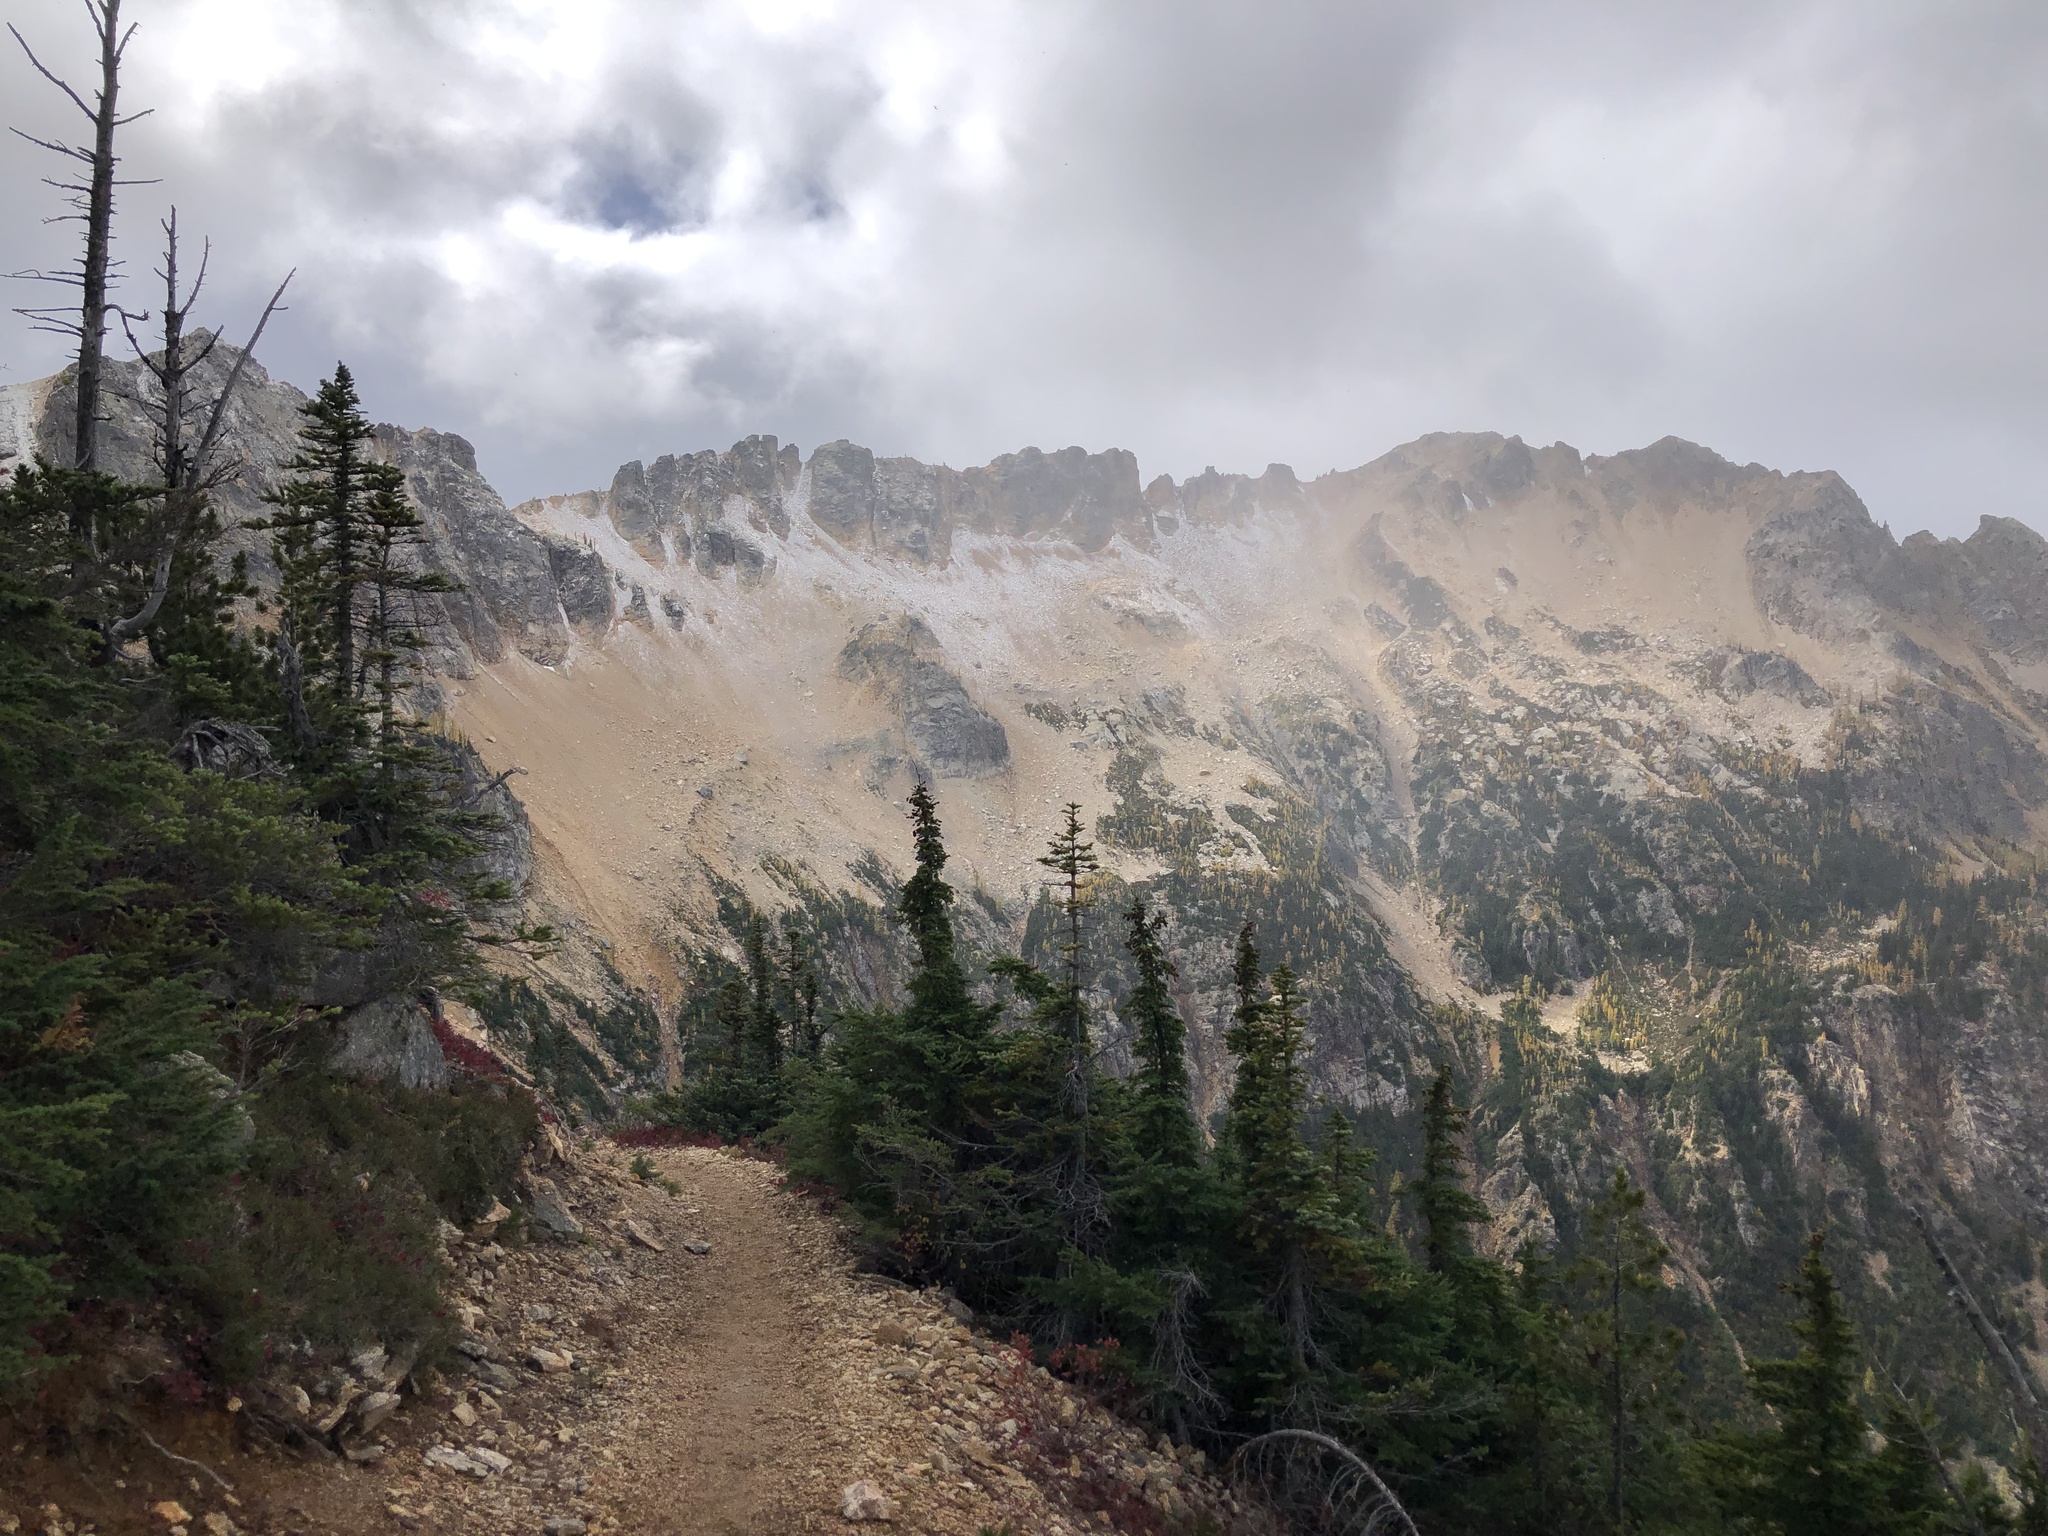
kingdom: Plantae
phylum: Tracheophyta
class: Pinopsida
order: Pinales
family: Pinaceae
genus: Abies
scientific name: Abies lasiocarpa
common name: Subalpine fir
